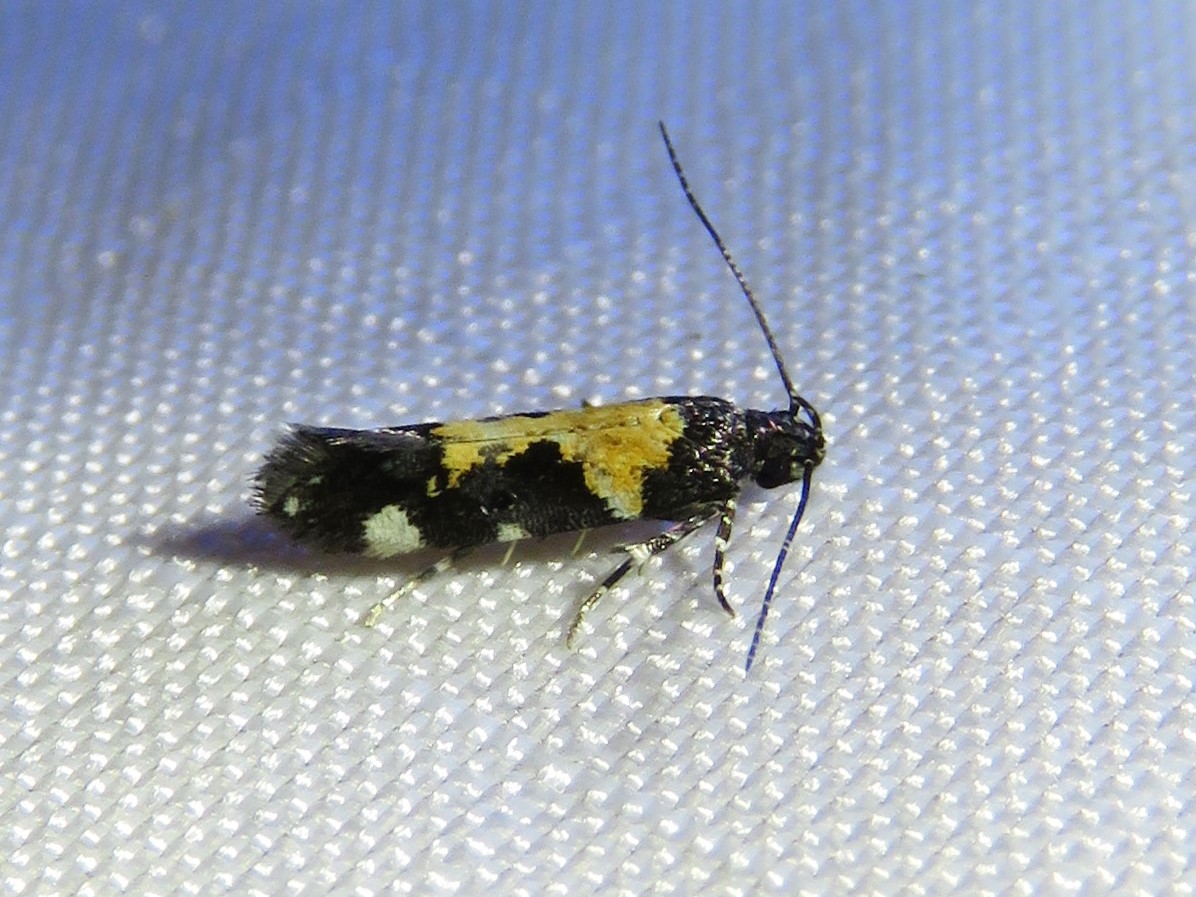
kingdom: Animalia
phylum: Arthropoda
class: Insecta
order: Lepidoptera
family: Gelechiidae
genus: Stegasta
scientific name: Stegasta bosqueella
